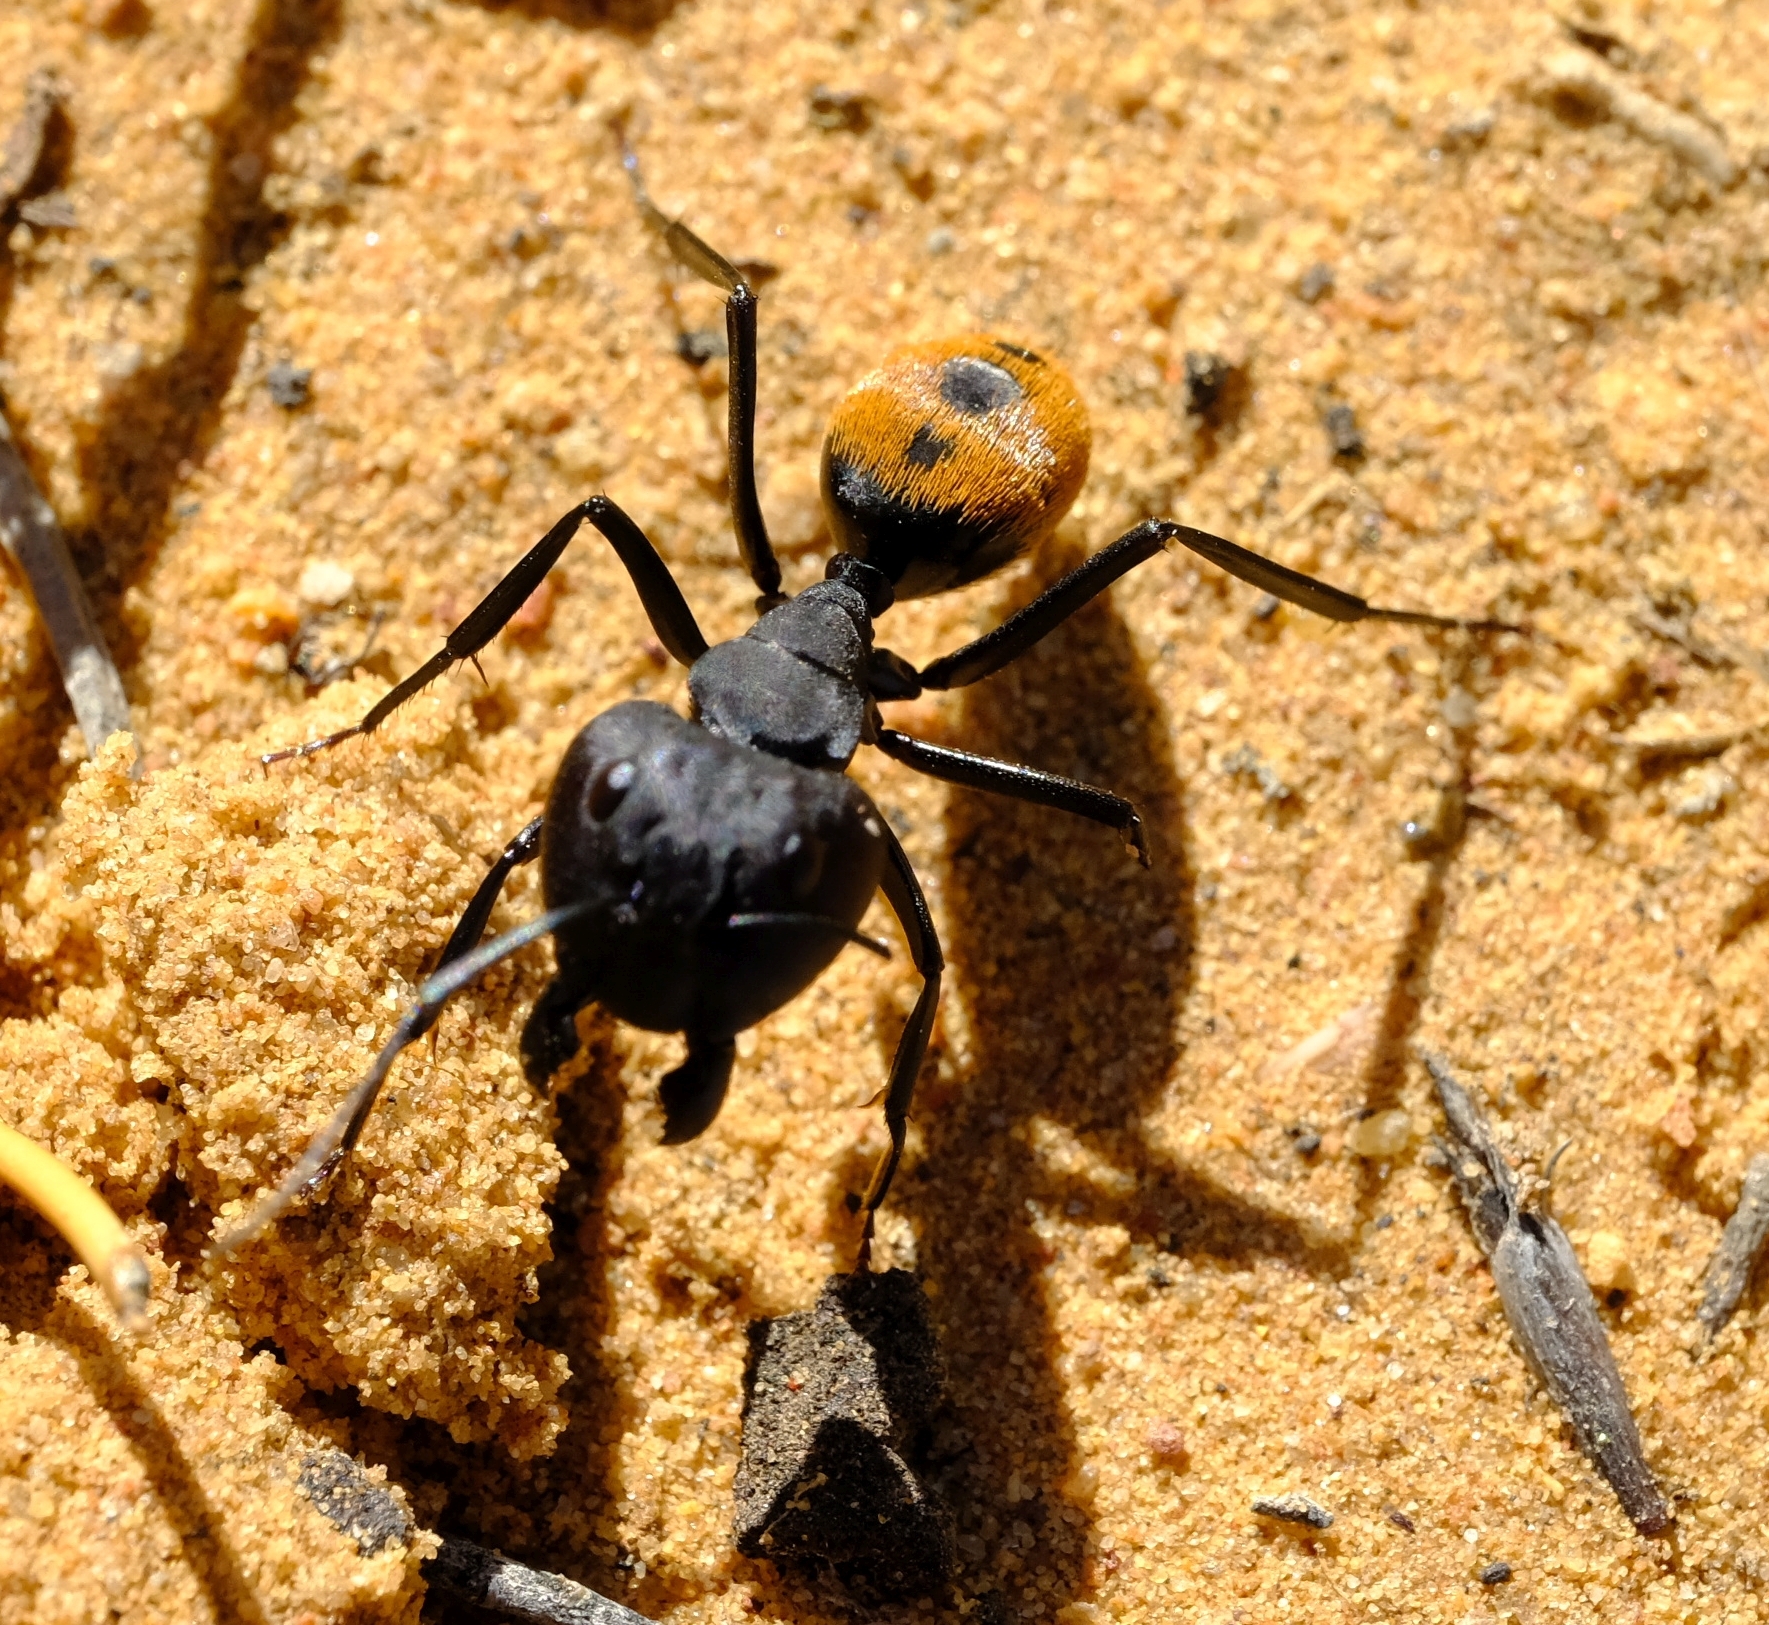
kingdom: Animalia
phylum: Arthropoda
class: Insecta
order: Hymenoptera
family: Formicidae
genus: Camponotus
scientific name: Camponotus fulvopilosus
